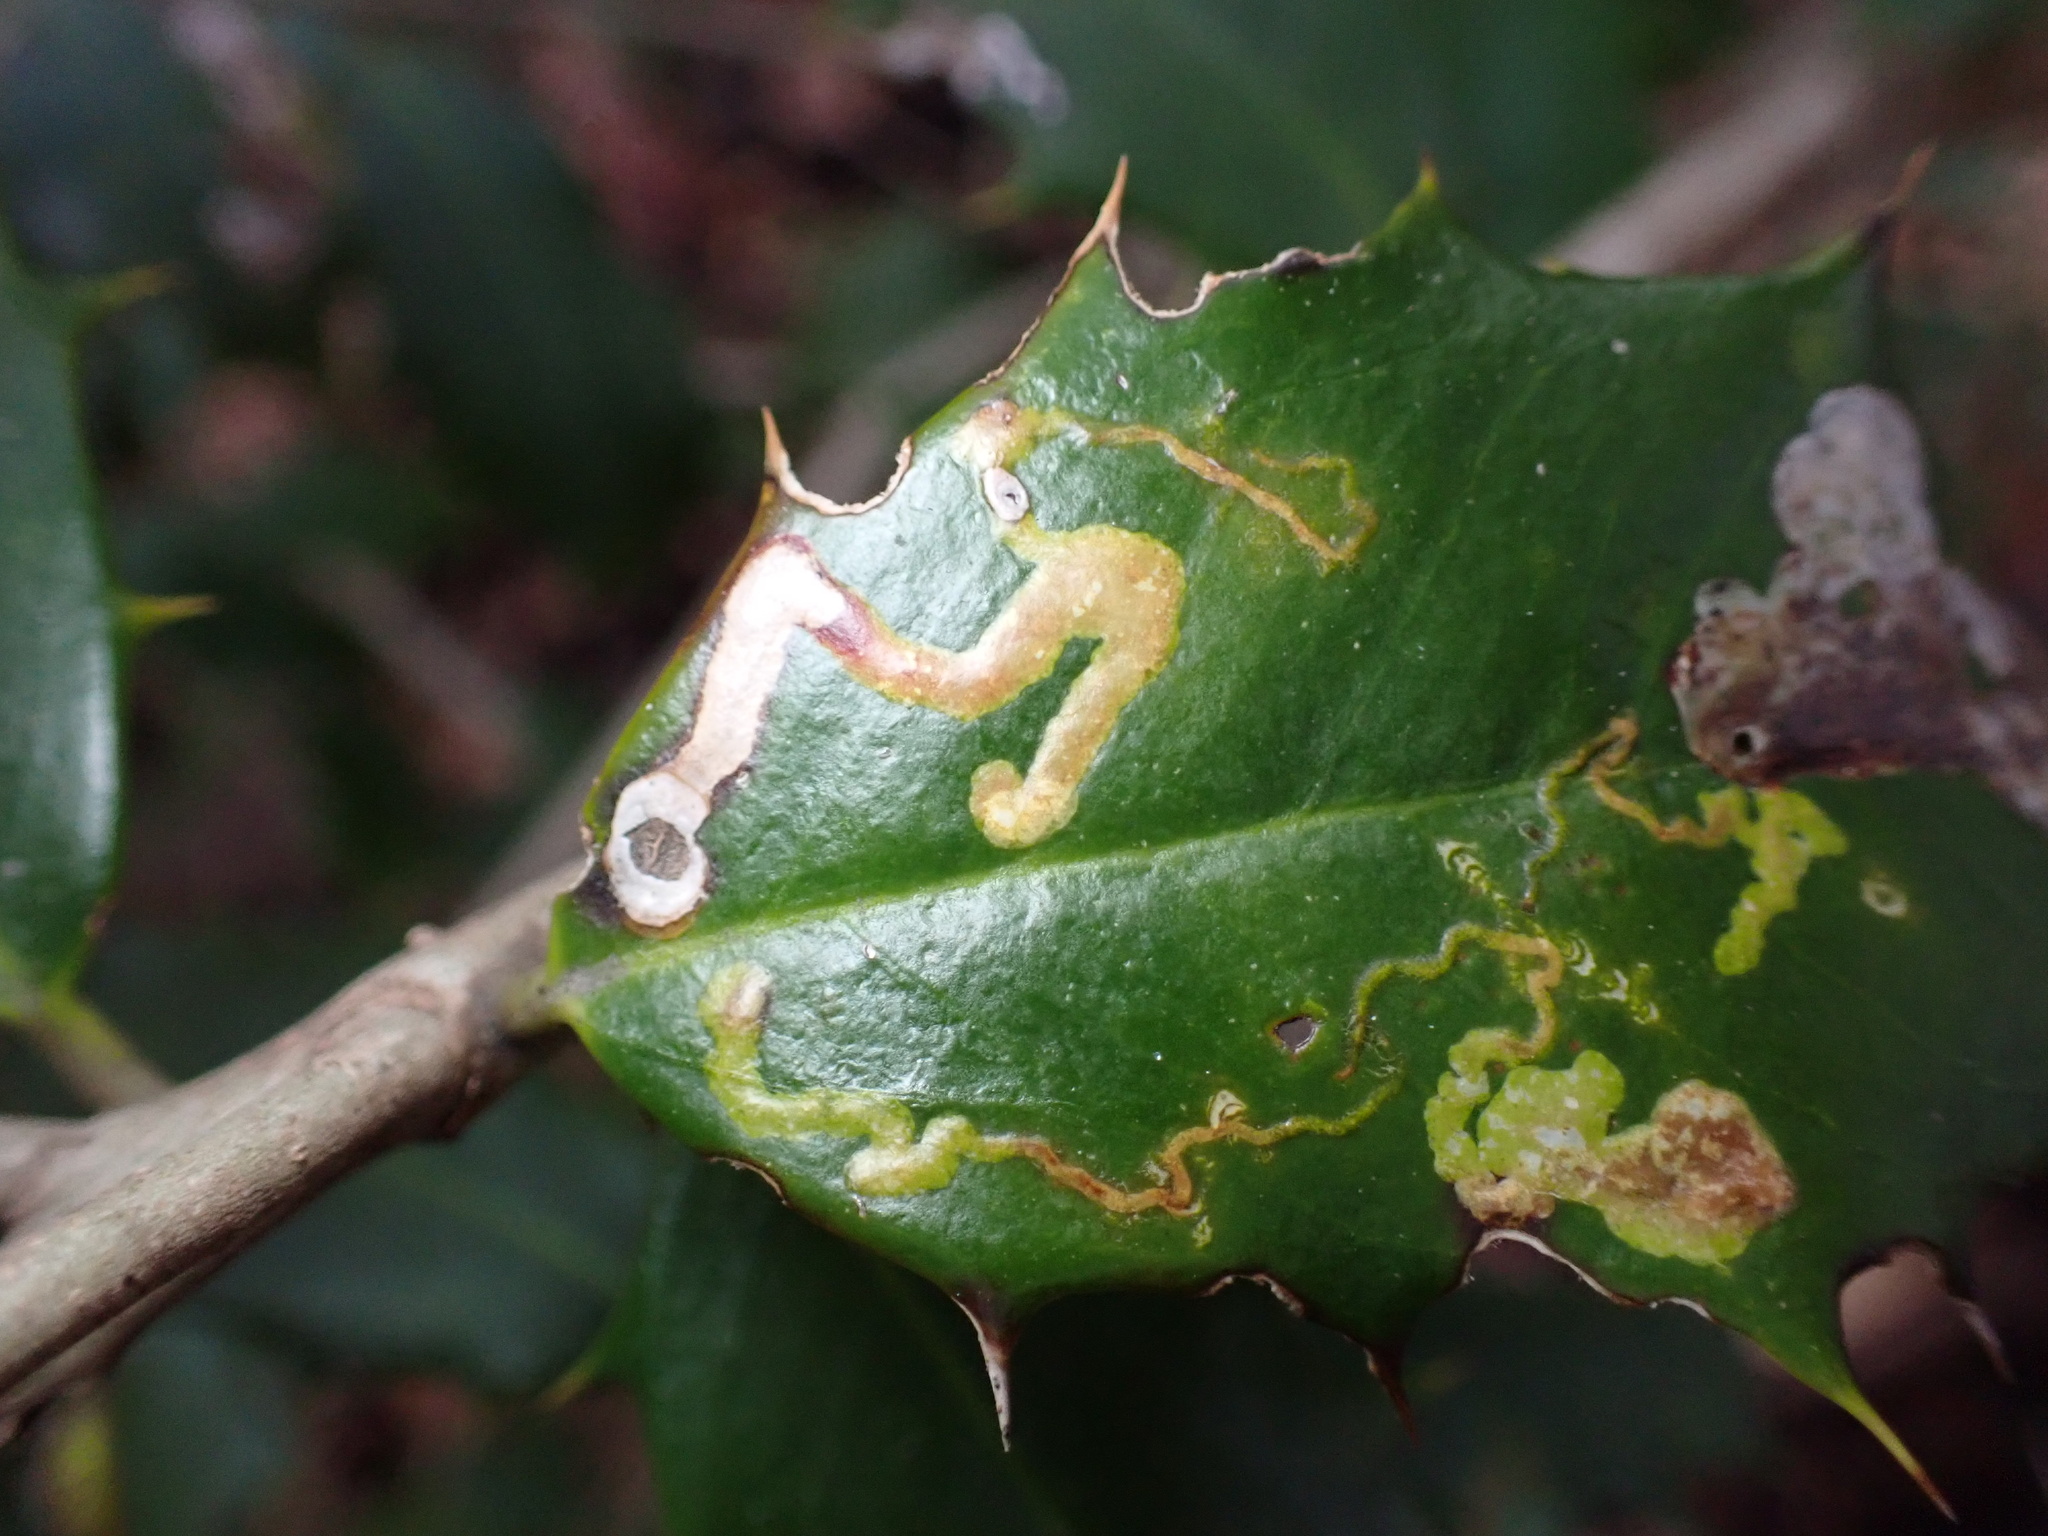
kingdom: Animalia
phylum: Arthropoda
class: Insecta
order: Diptera
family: Agromyzidae
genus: Phytomyza
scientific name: Phytomyza ilicicola
